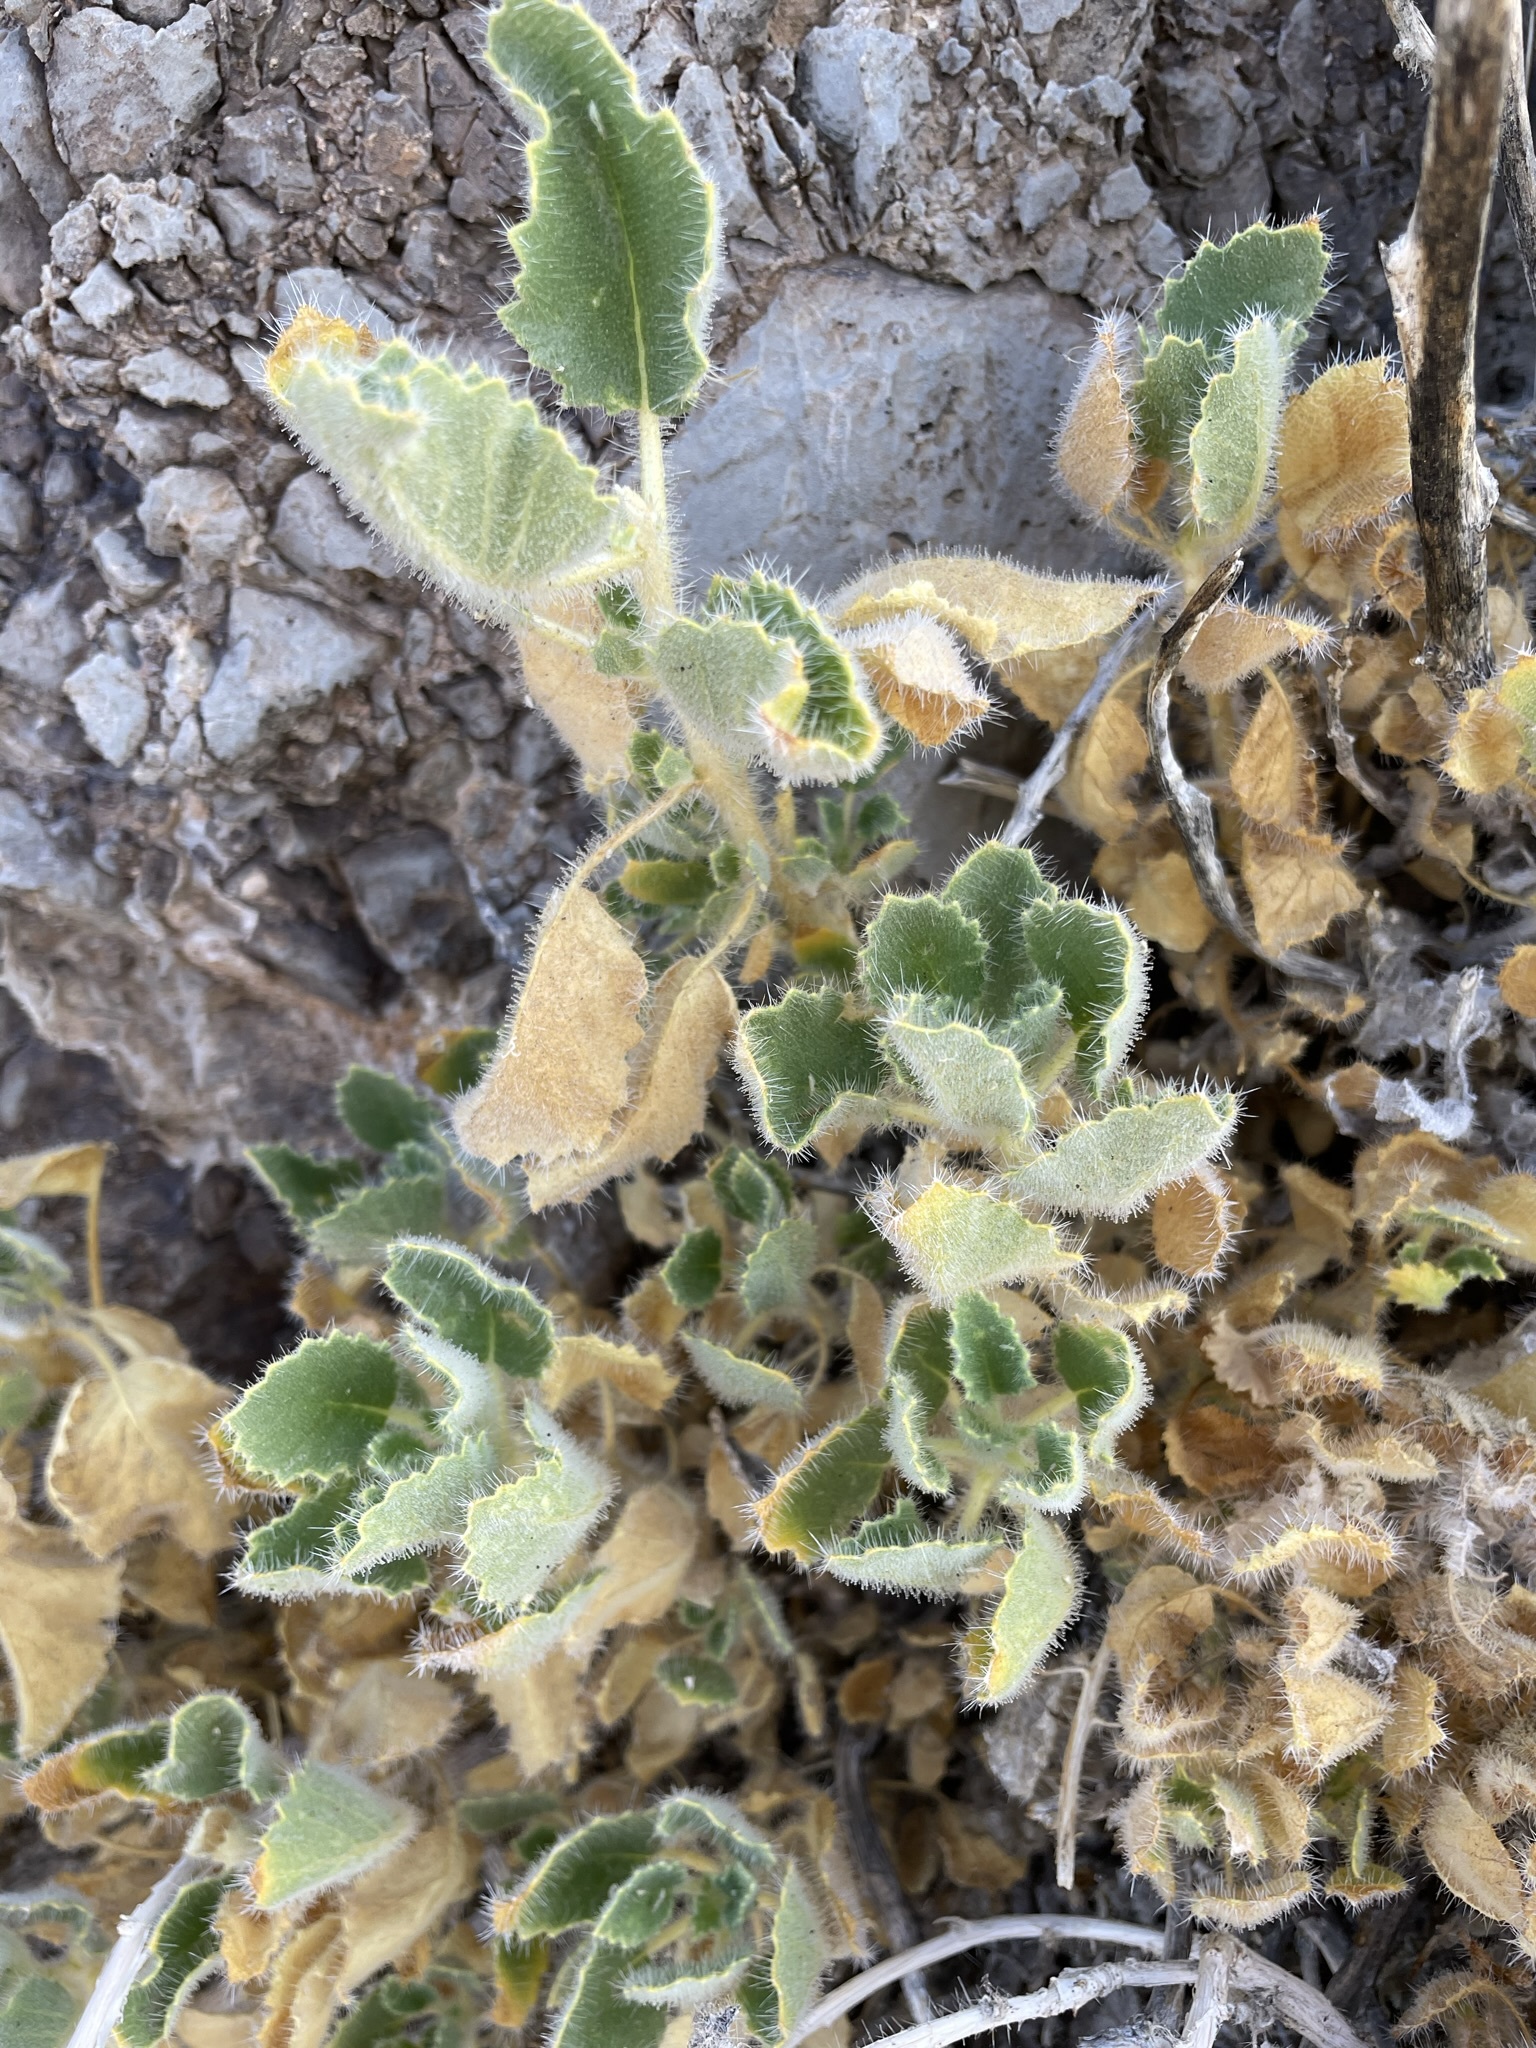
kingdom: Plantae
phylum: Tracheophyta
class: Magnoliopsida
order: Cornales
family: Loasaceae
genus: Eucnide
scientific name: Eucnide urens
